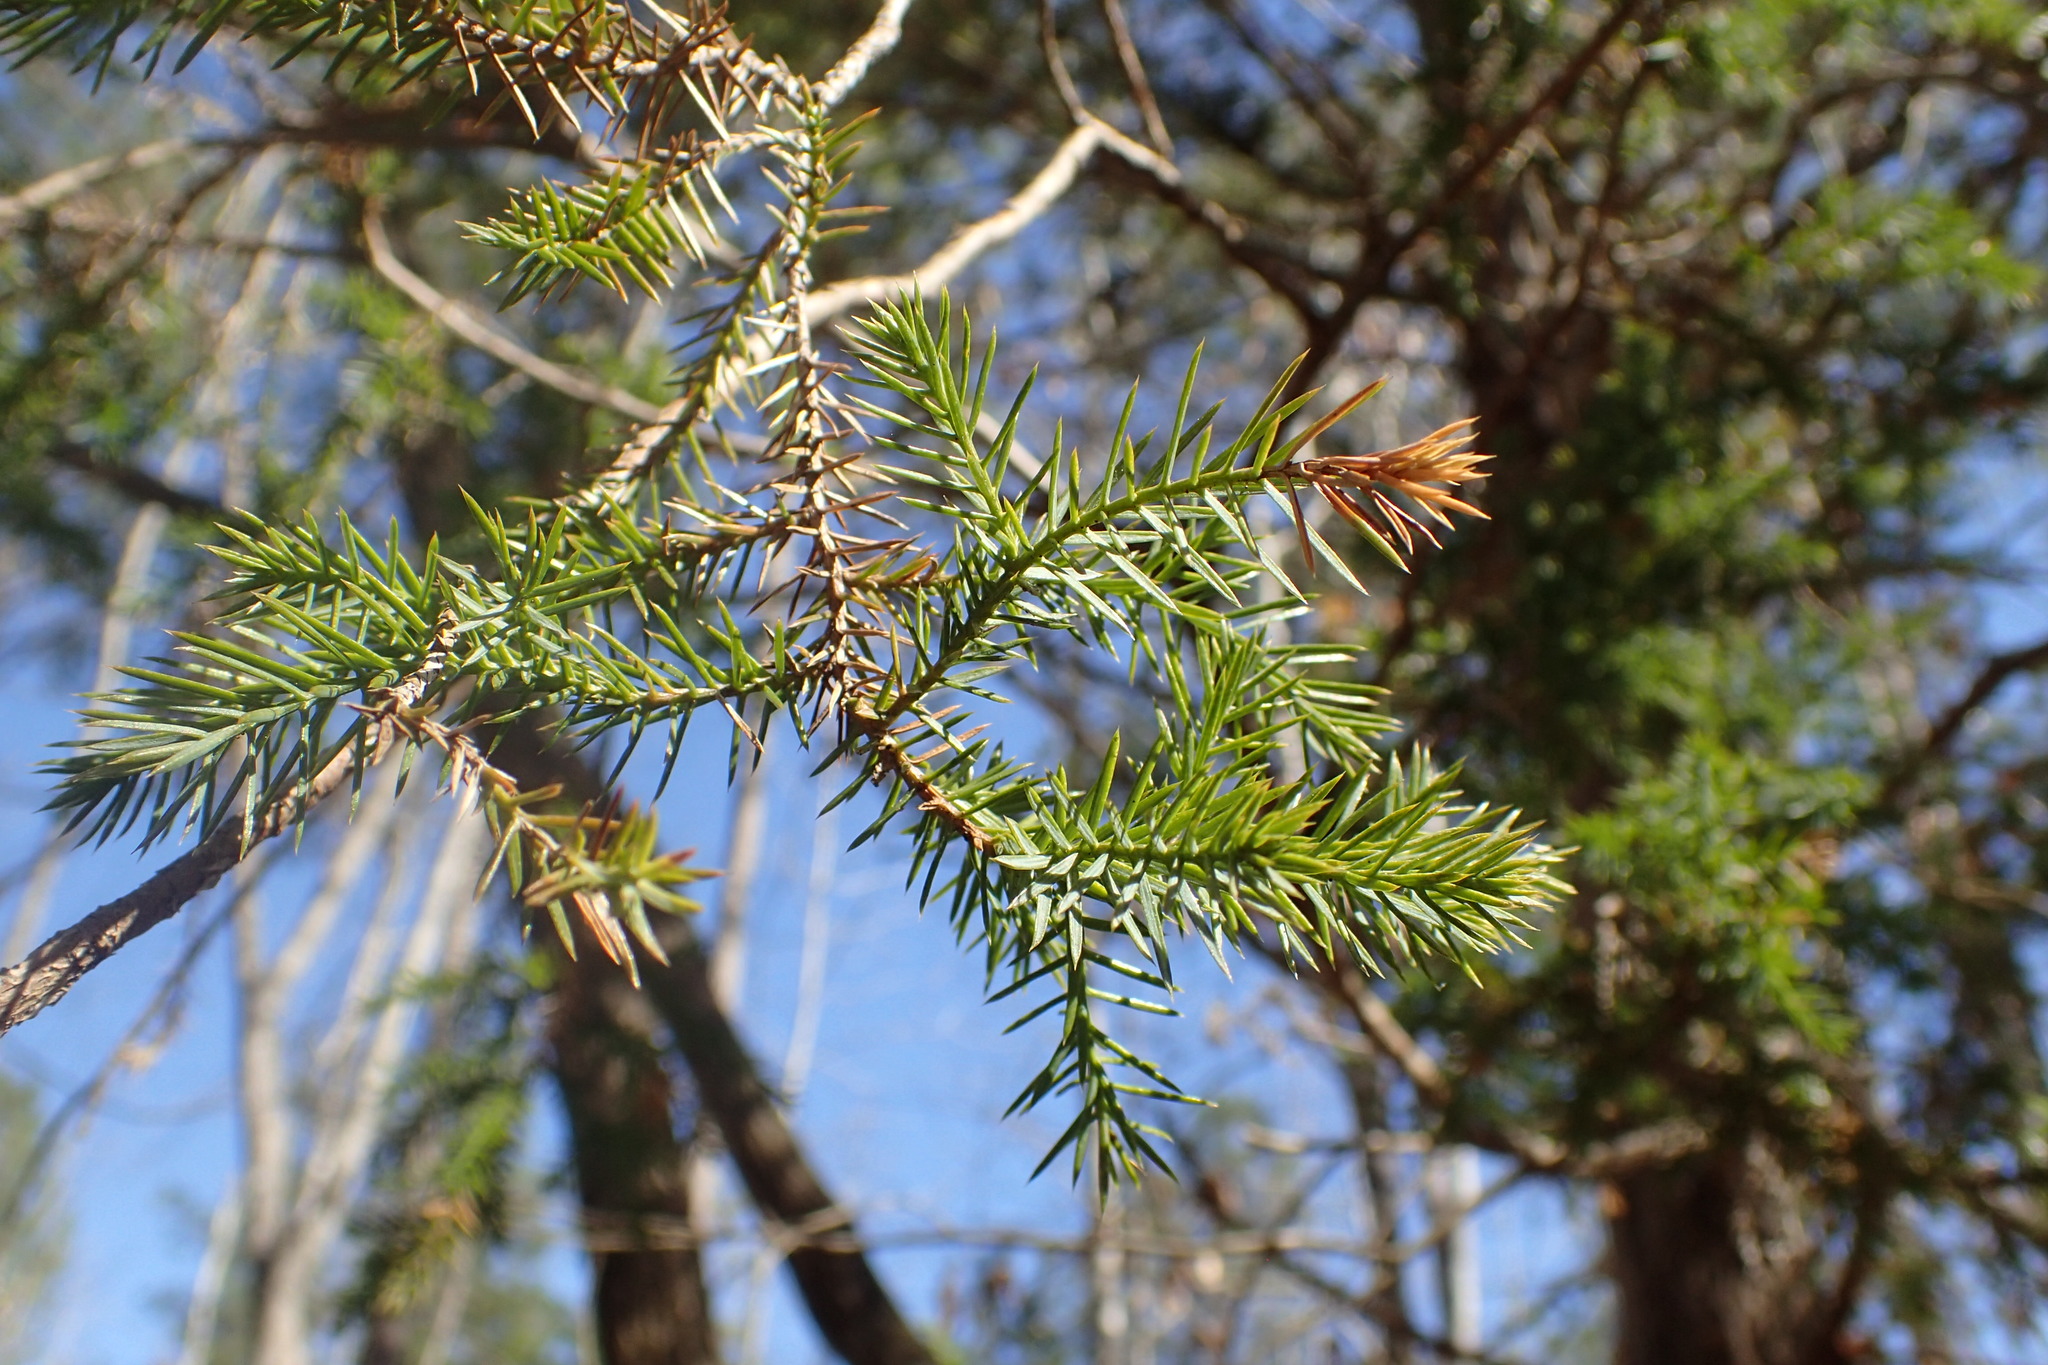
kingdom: Plantae
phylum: Tracheophyta
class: Pinopsida
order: Pinales
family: Cupressaceae
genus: Juniperus
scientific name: Juniperus virginiana
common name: Red juniper
